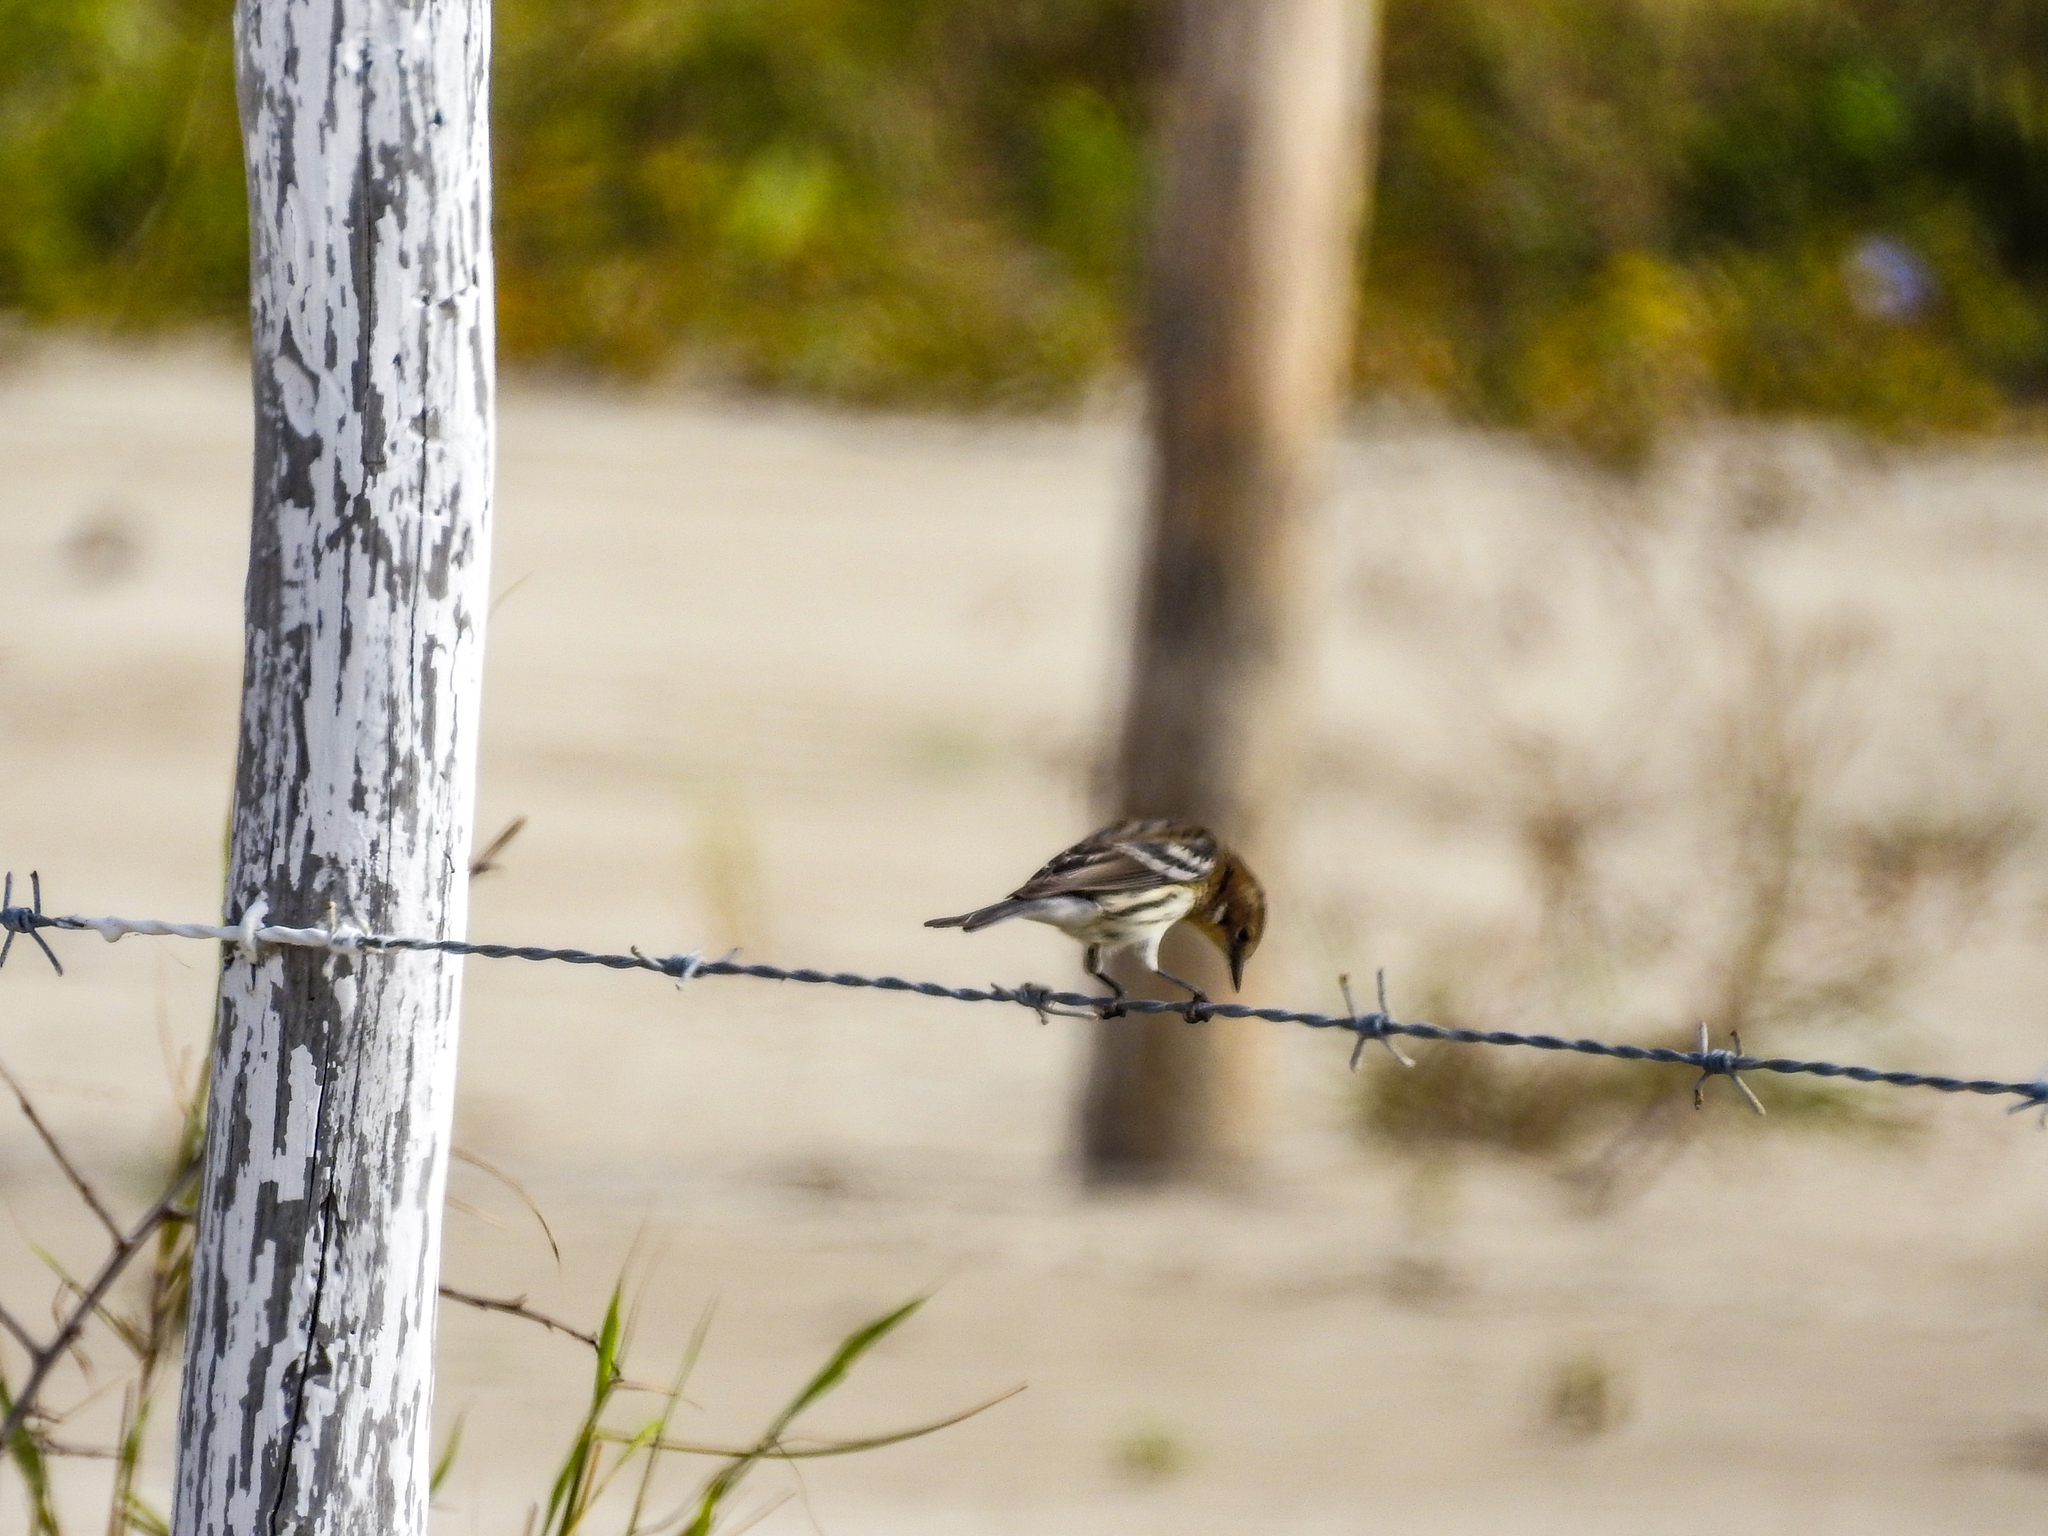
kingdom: Animalia
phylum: Chordata
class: Aves
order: Passeriformes
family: Parulidae
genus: Setophaga
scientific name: Setophaga coronata
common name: Myrtle warbler
